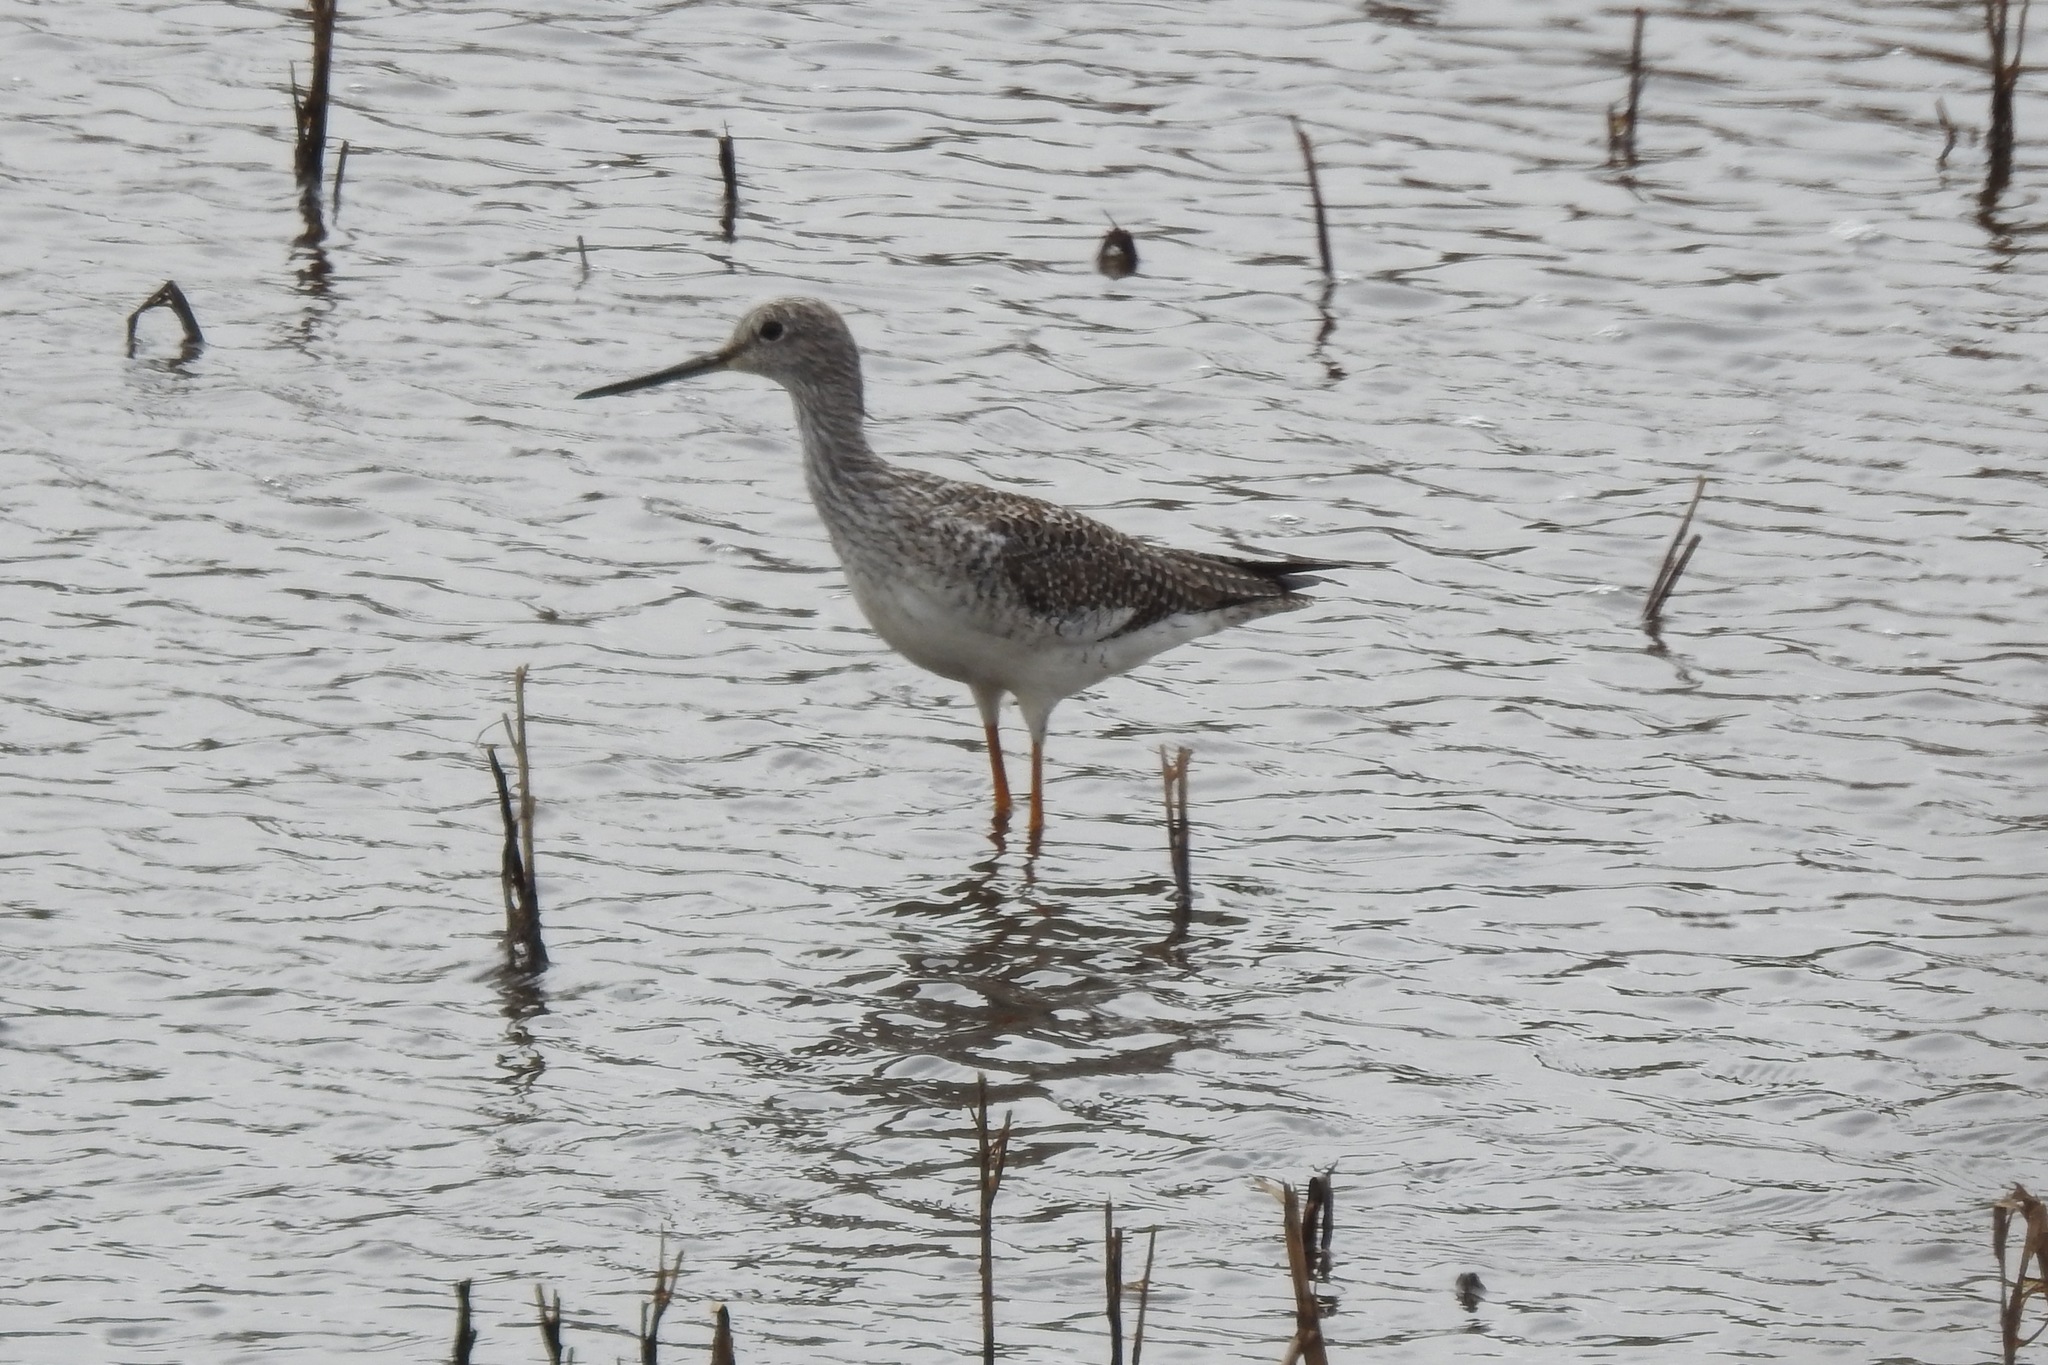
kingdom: Animalia
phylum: Chordata
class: Aves
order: Charadriiformes
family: Scolopacidae
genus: Tringa
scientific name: Tringa melanoleuca
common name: Greater yellowlegs
